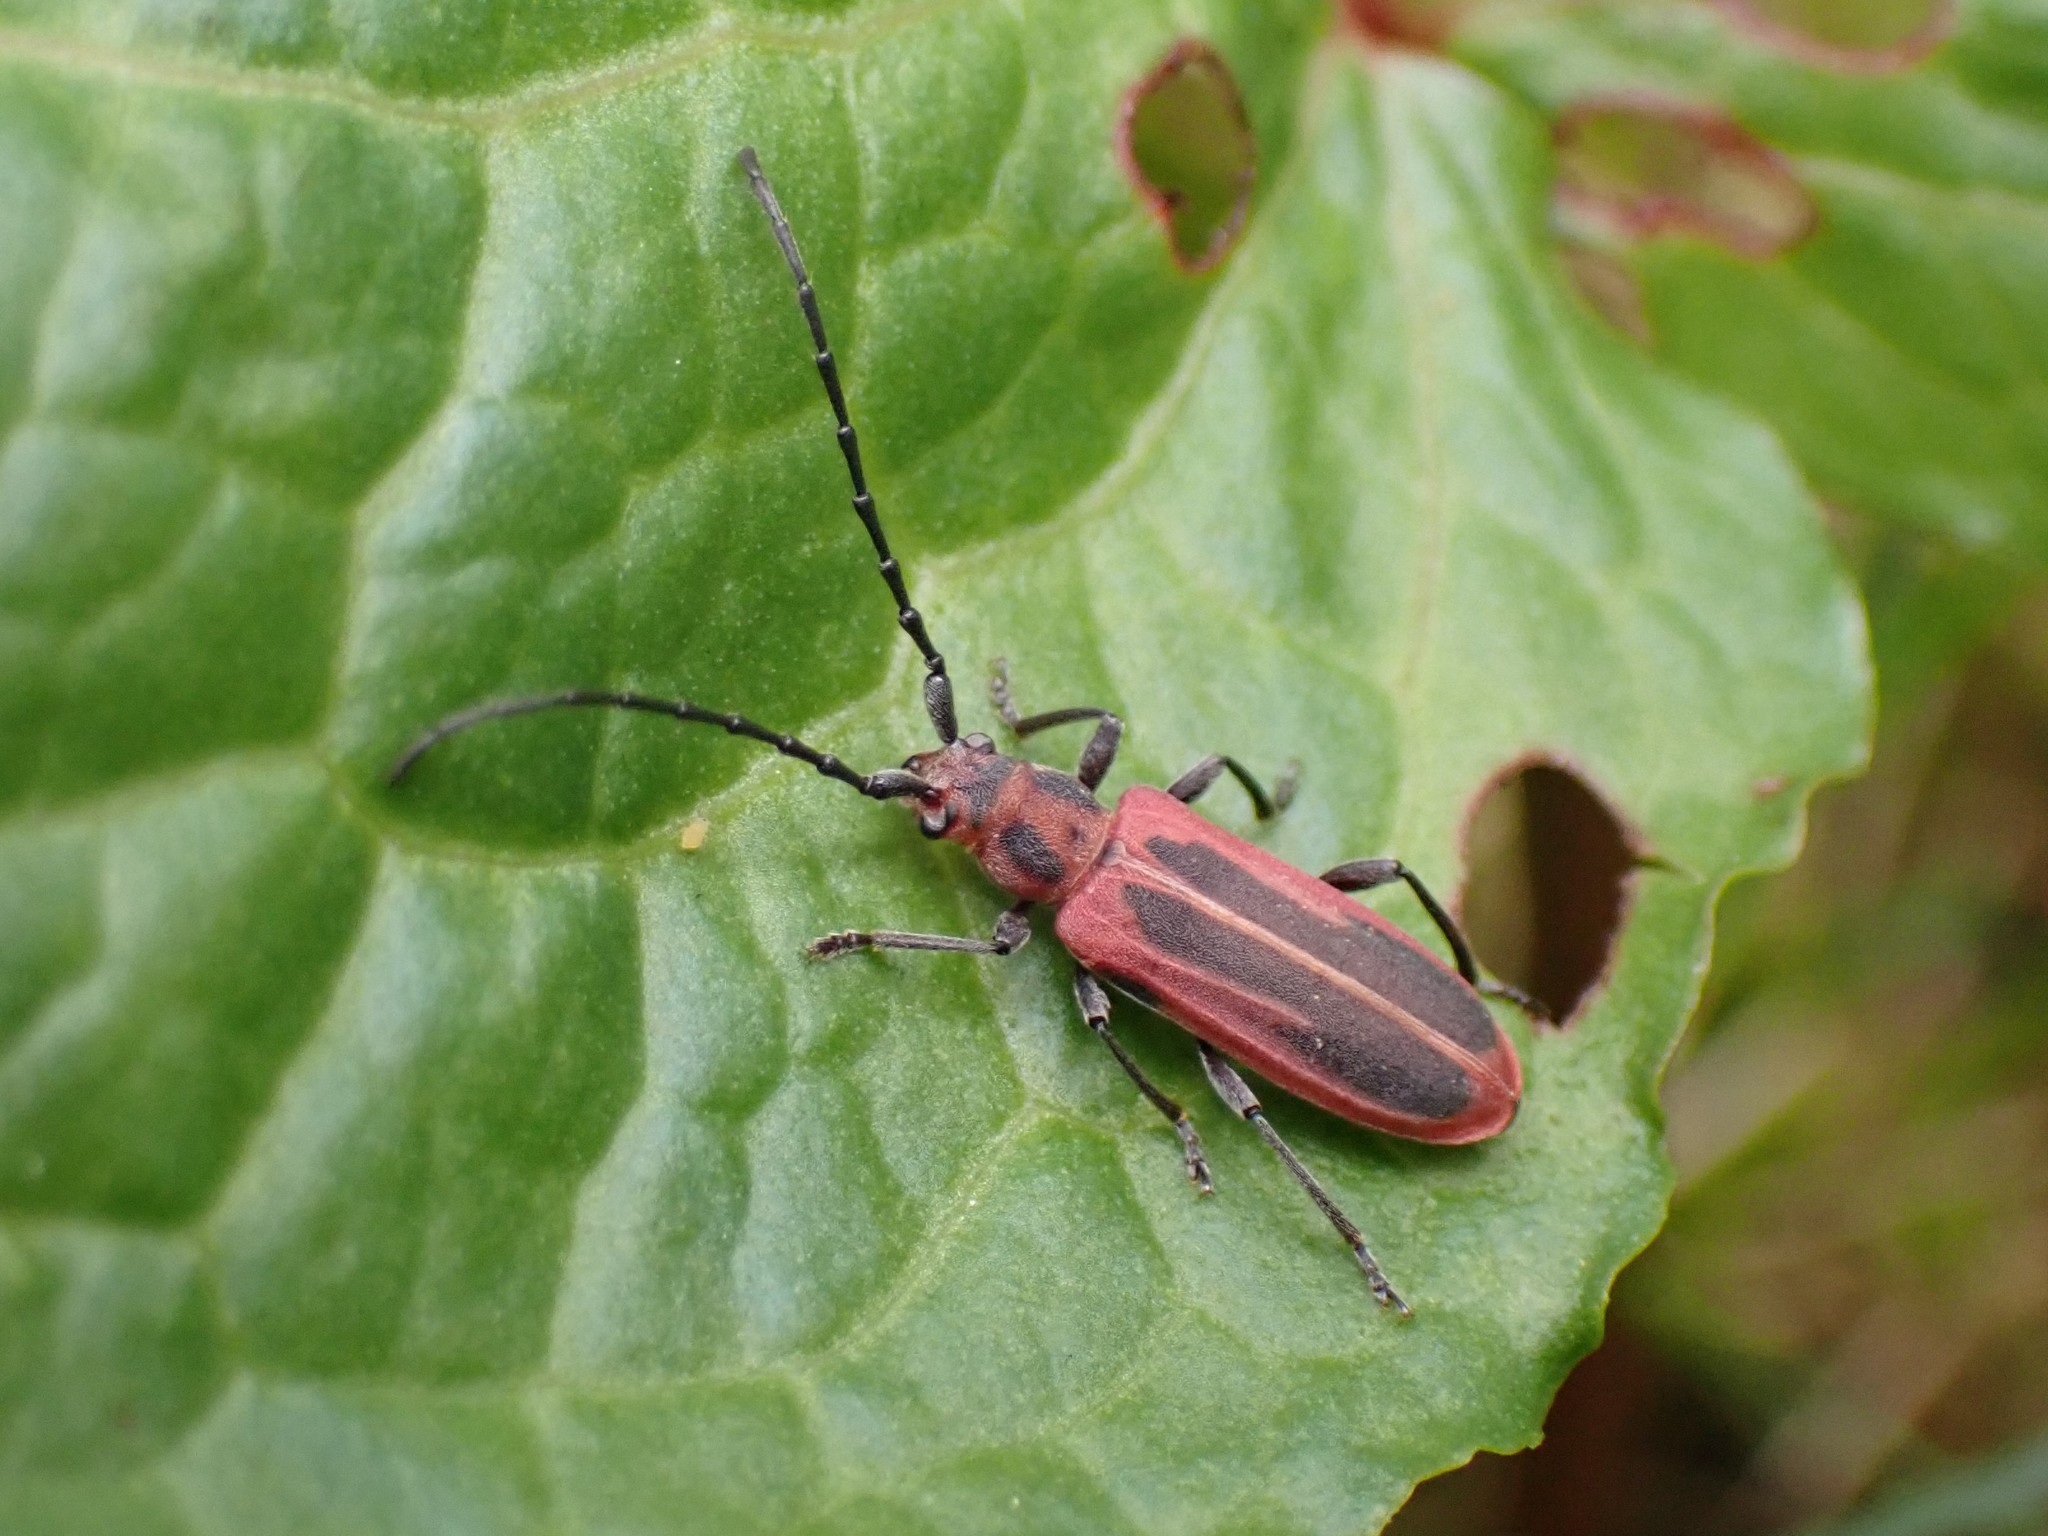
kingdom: Animalia
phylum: Arthropoda
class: Insecta
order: Coleoptera
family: Cerambycidae
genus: Holopleura
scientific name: Holopleura marginata
